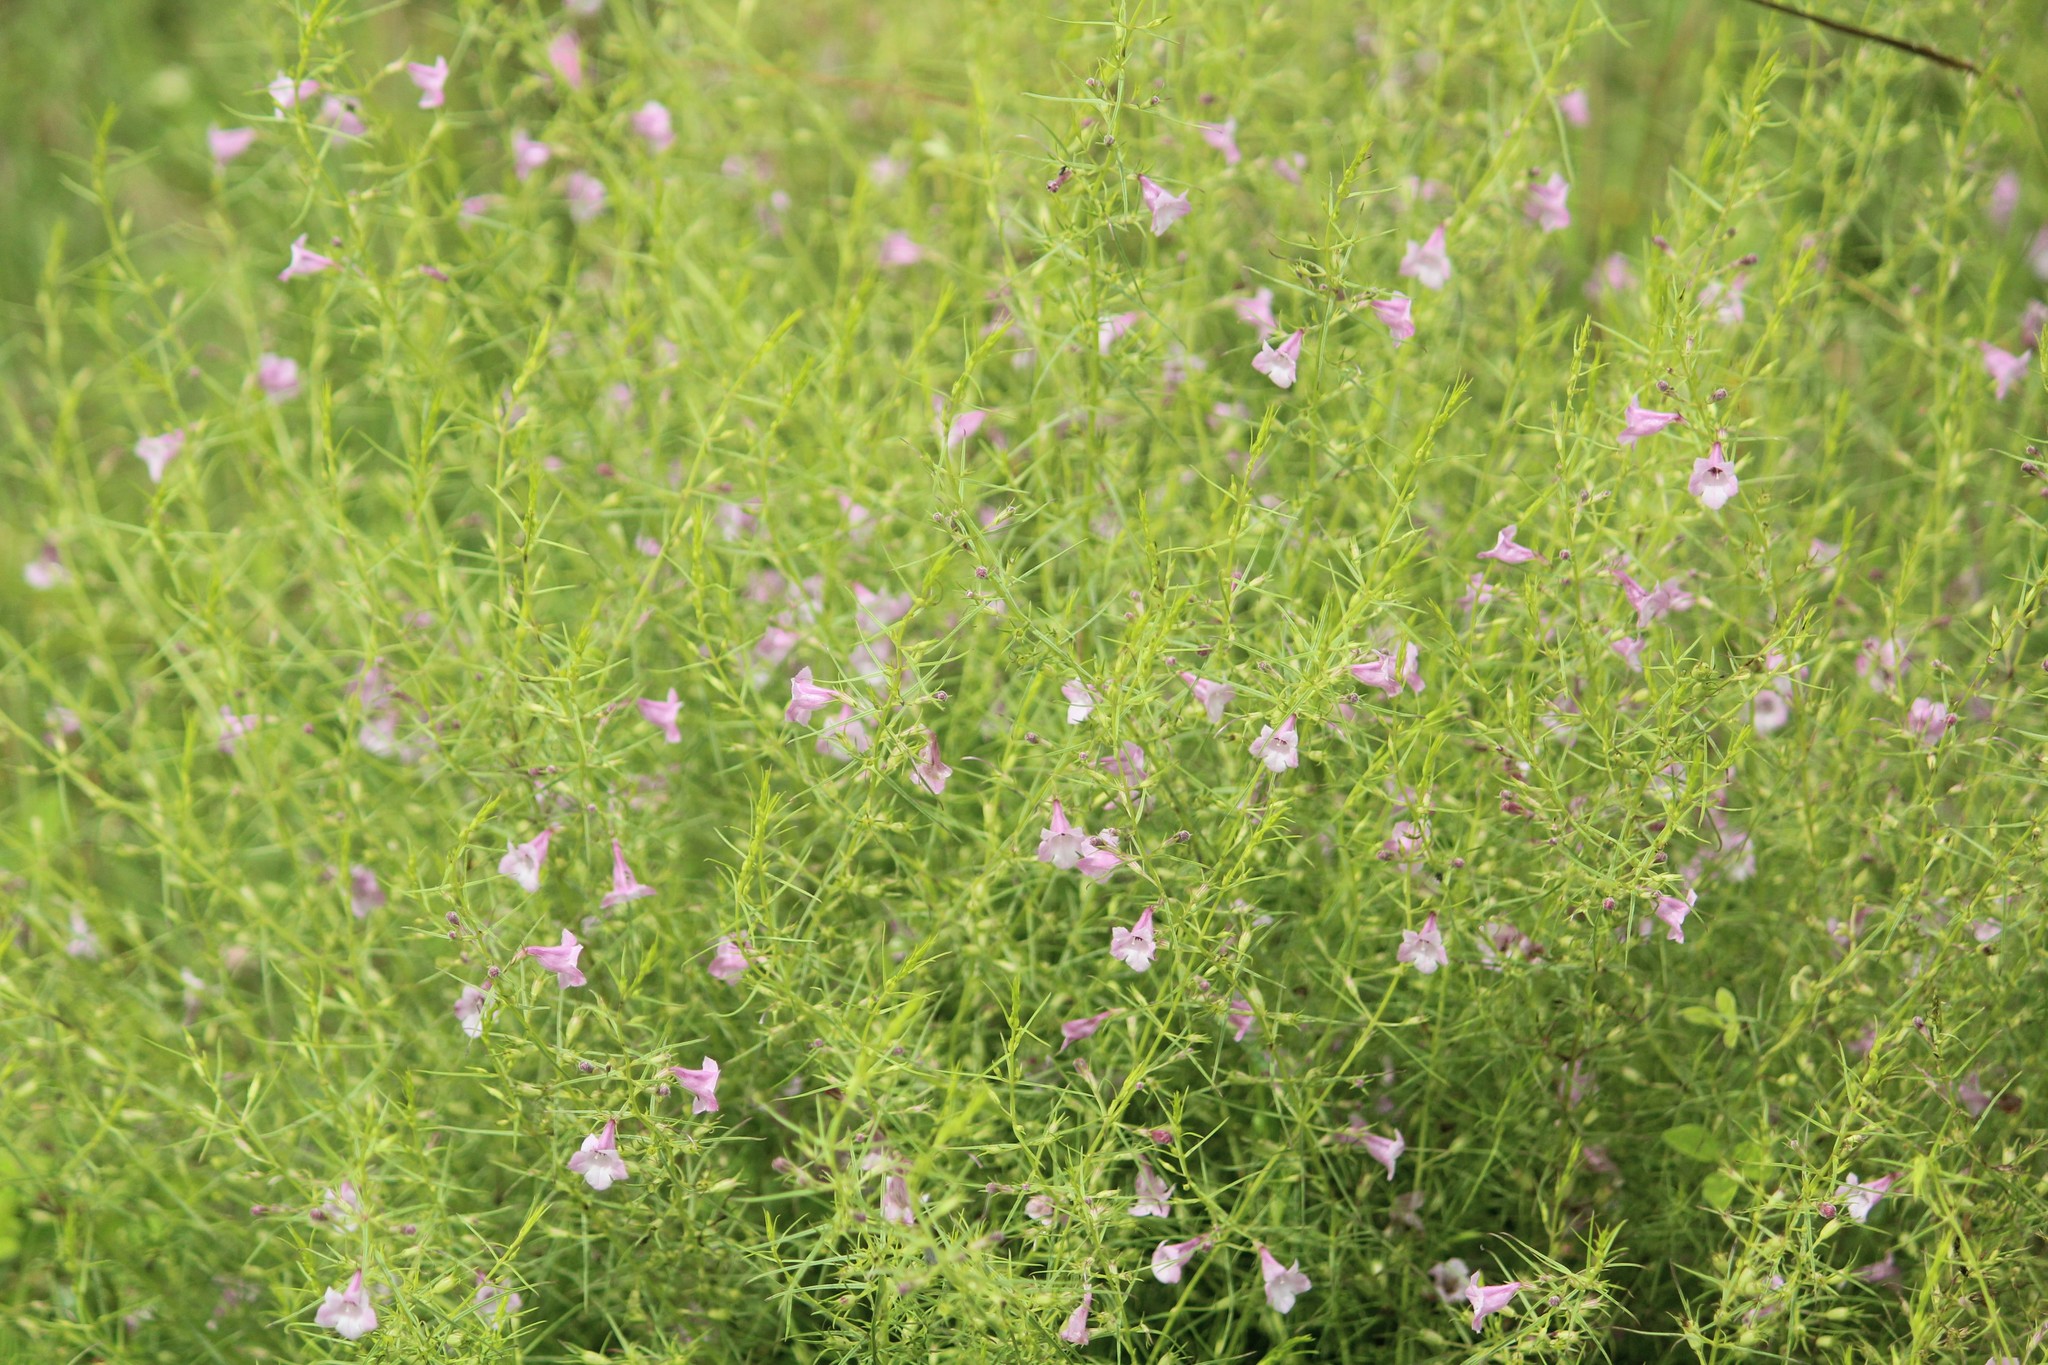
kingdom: Plantae
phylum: Tracheophyta
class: Magnoliopsida
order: Lamiales
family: Orobanchaceae
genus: Parasopubia
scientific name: Parasopubia delphiniifolia
